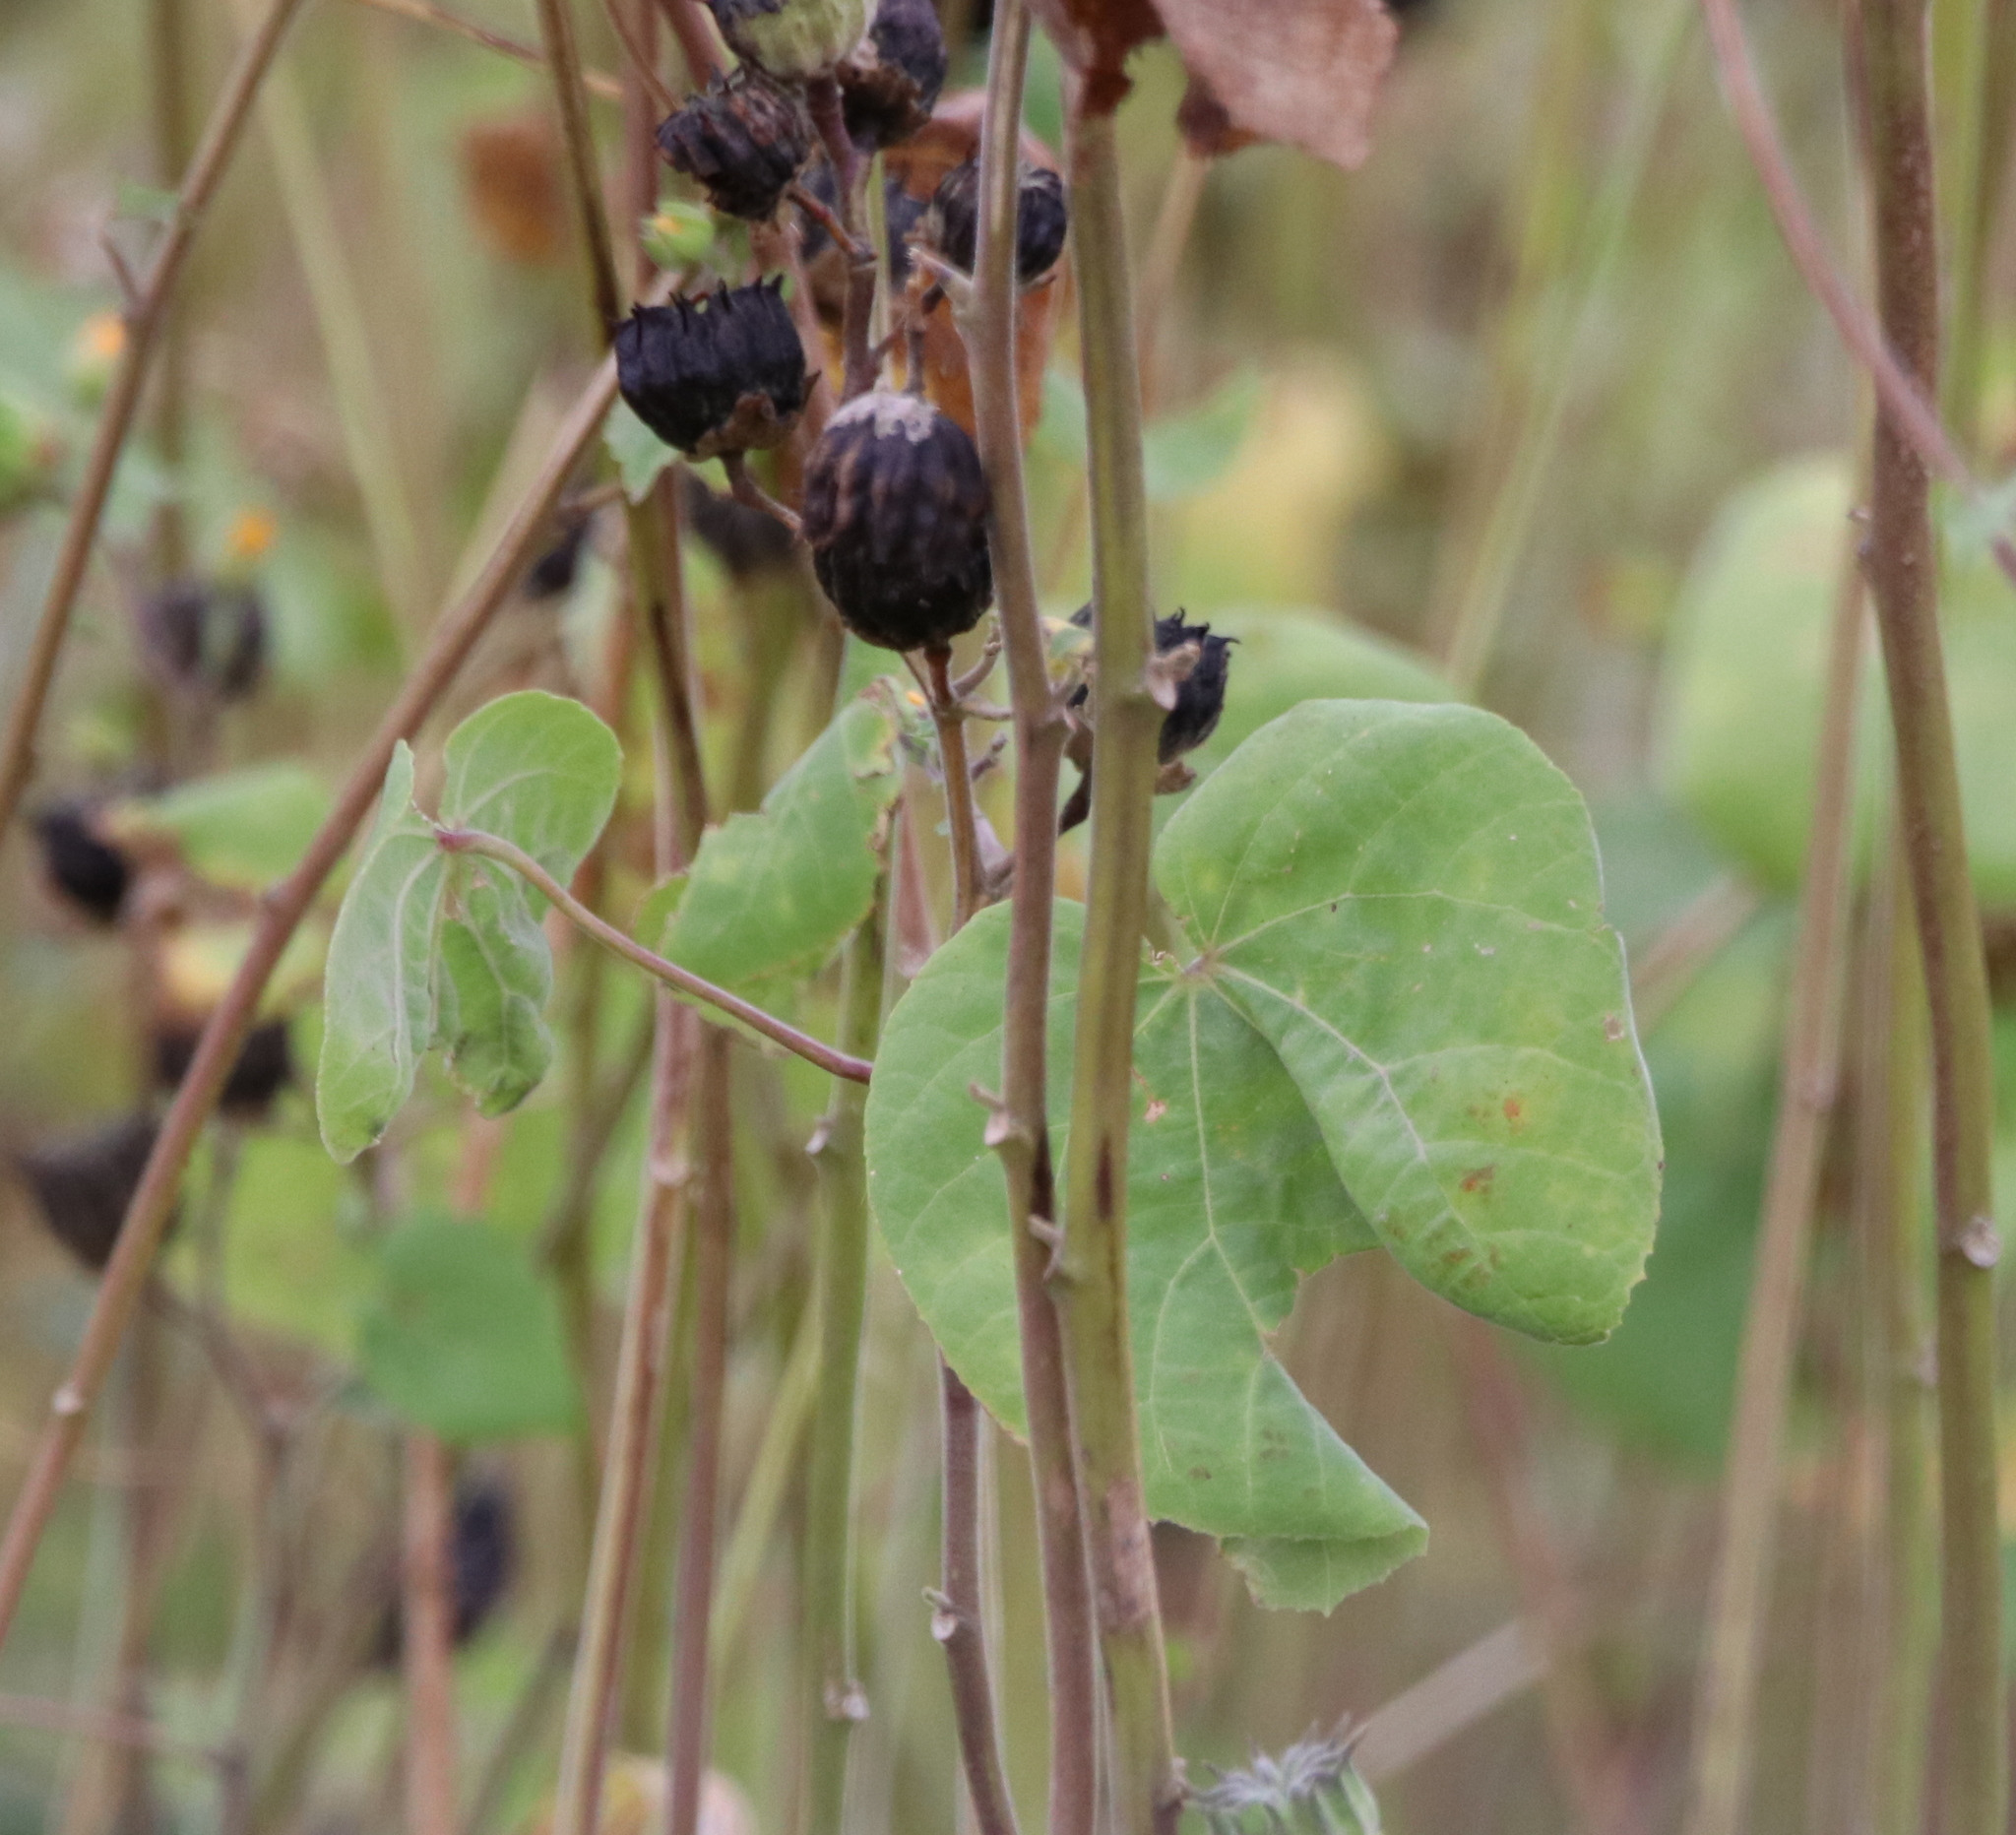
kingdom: Plantae
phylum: Tracheophyta
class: Magnoliopsida
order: Malvales
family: Malvaceae
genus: Abutilon
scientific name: Abutilon theophrasti
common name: Velvetleaf
